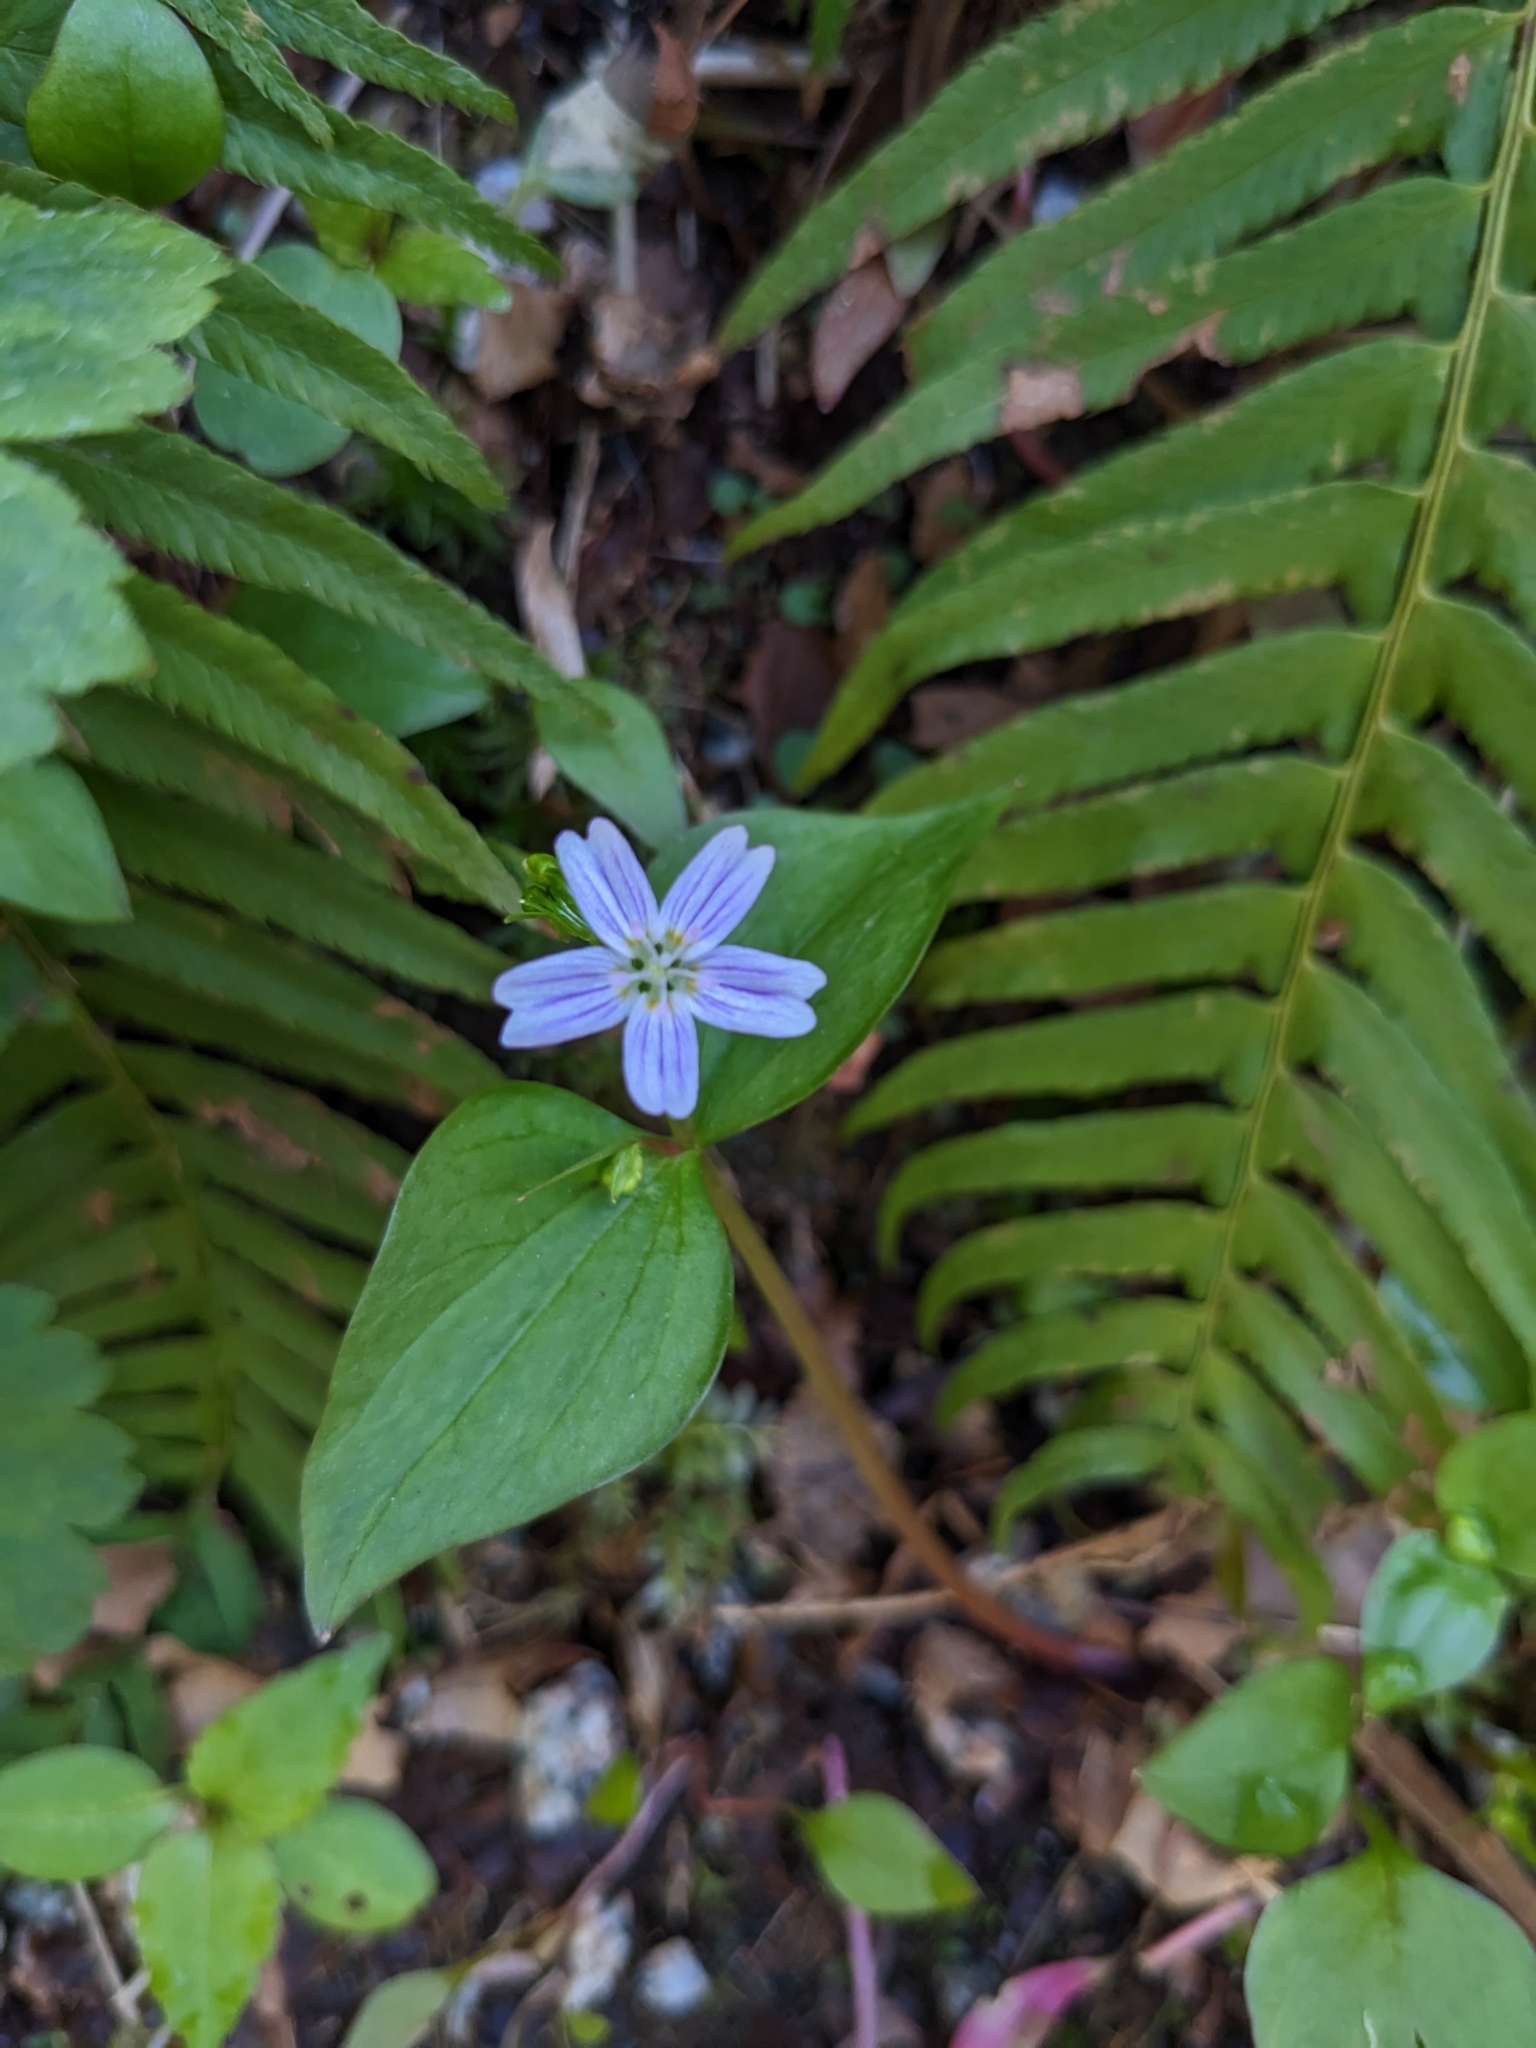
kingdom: Plantae
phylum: Tracheophyta
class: Magnoliopsida
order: Caryophyllales
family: Montiaceae
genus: Claytonia
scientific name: Claytonia sibirica
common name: Pink purslane
